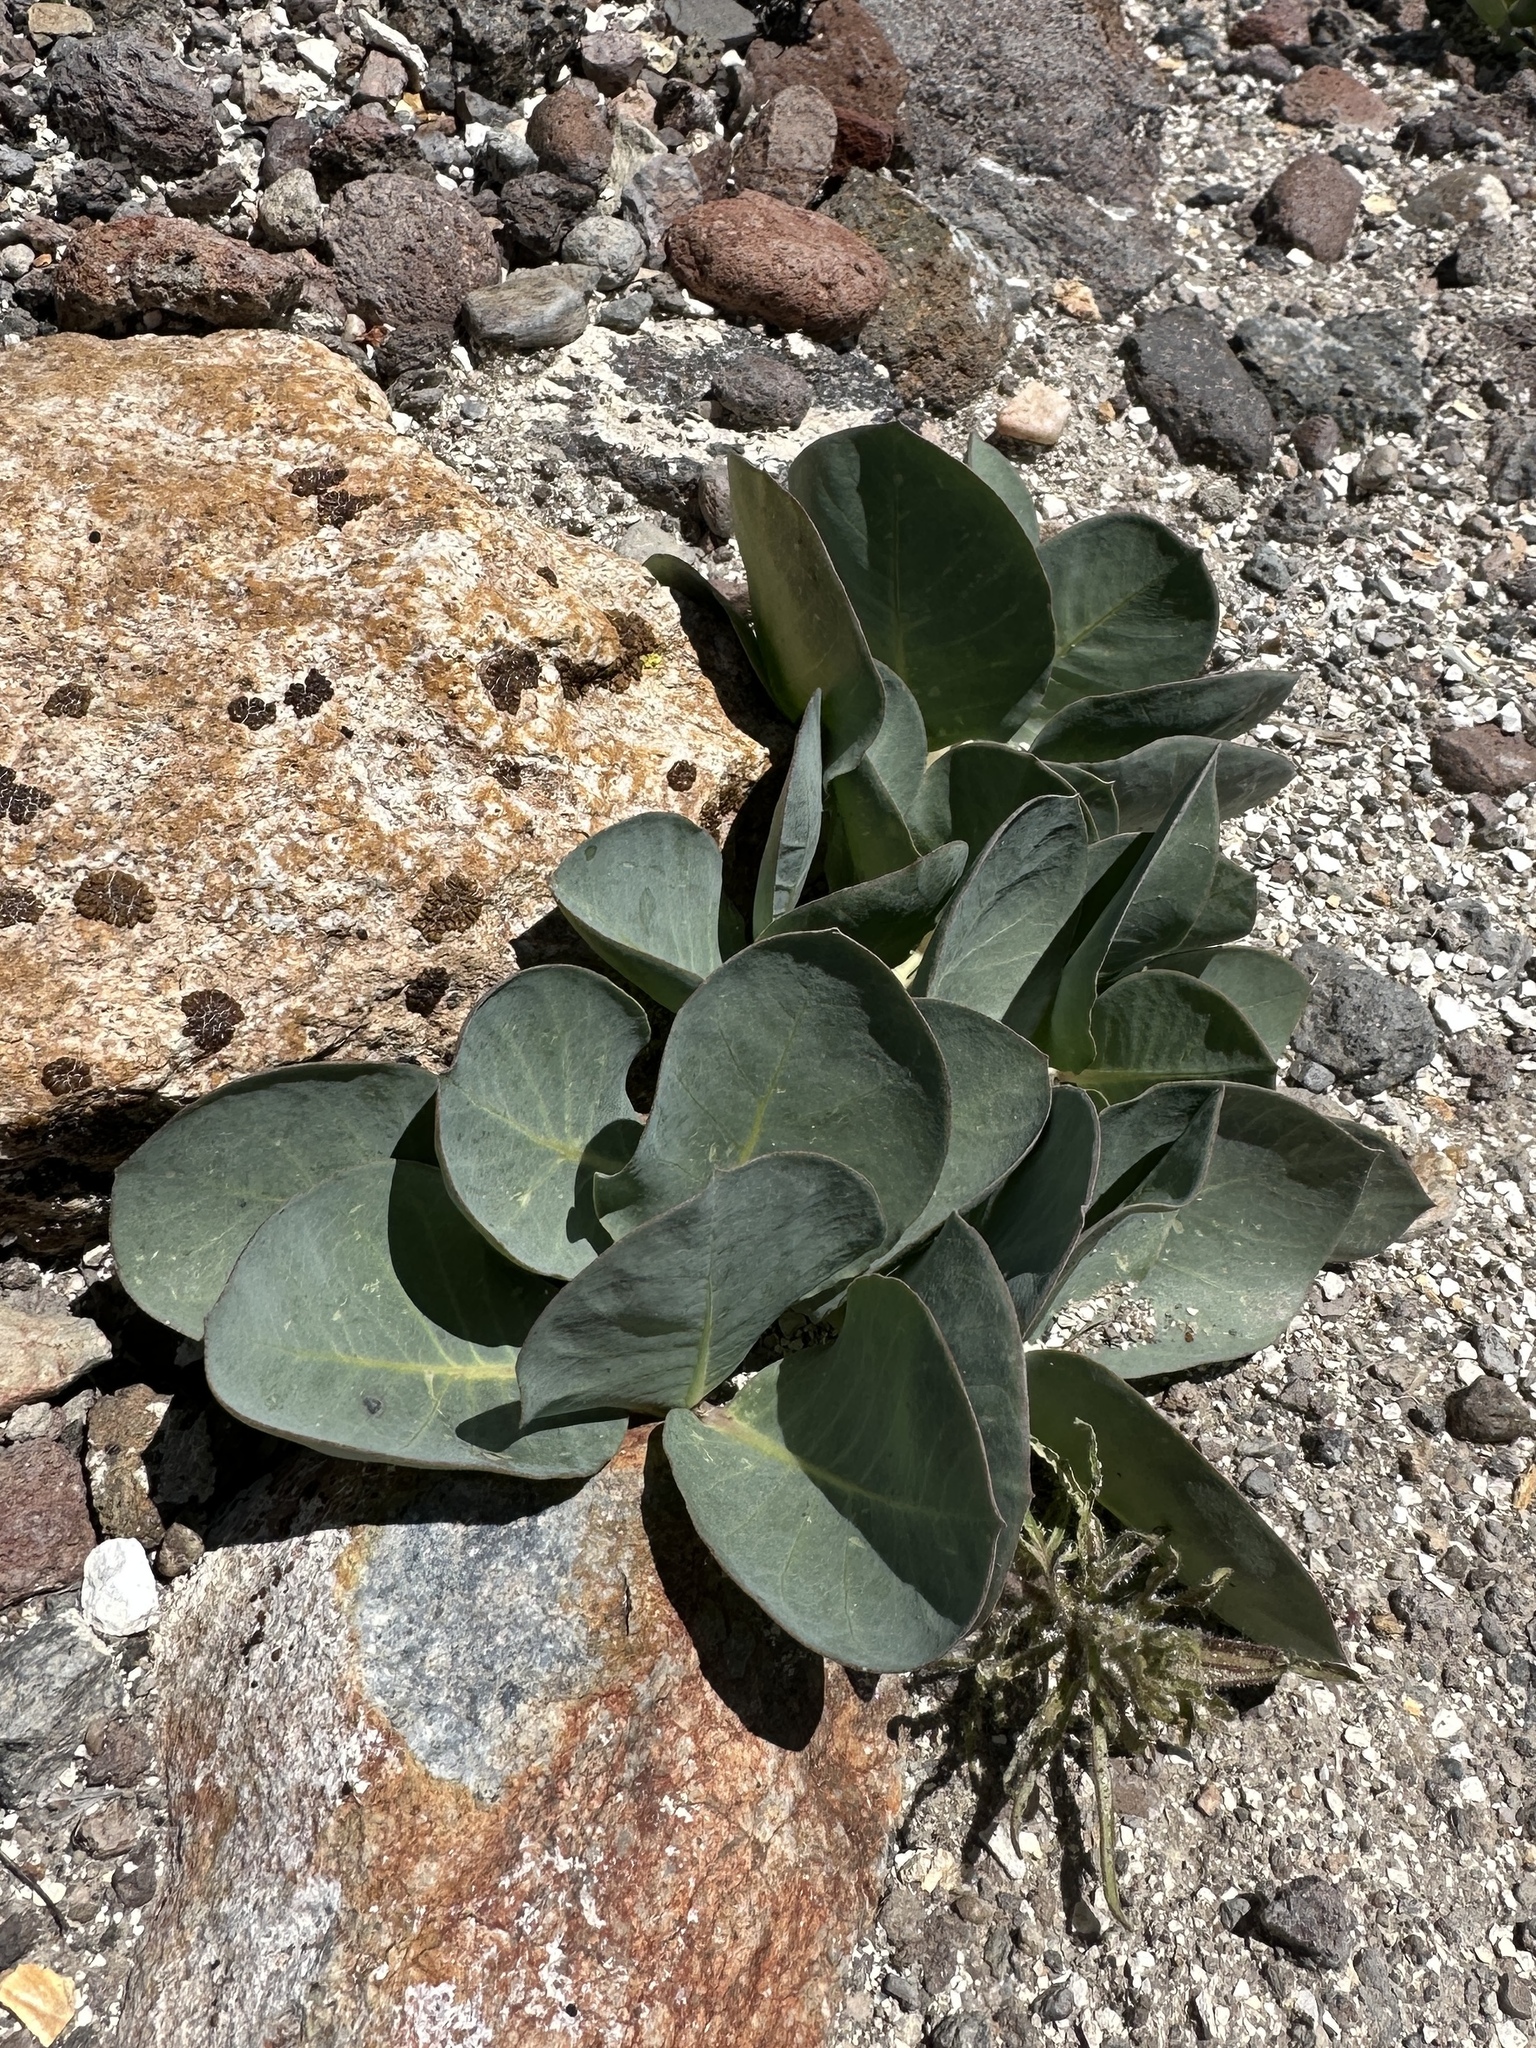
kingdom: Plantae
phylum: Tracheophyta
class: Magnoliopsida
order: Gentianales
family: Apocynaceae
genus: Asclepias
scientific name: Asclepias cryptoceras
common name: Humboldt mountains milkweed
